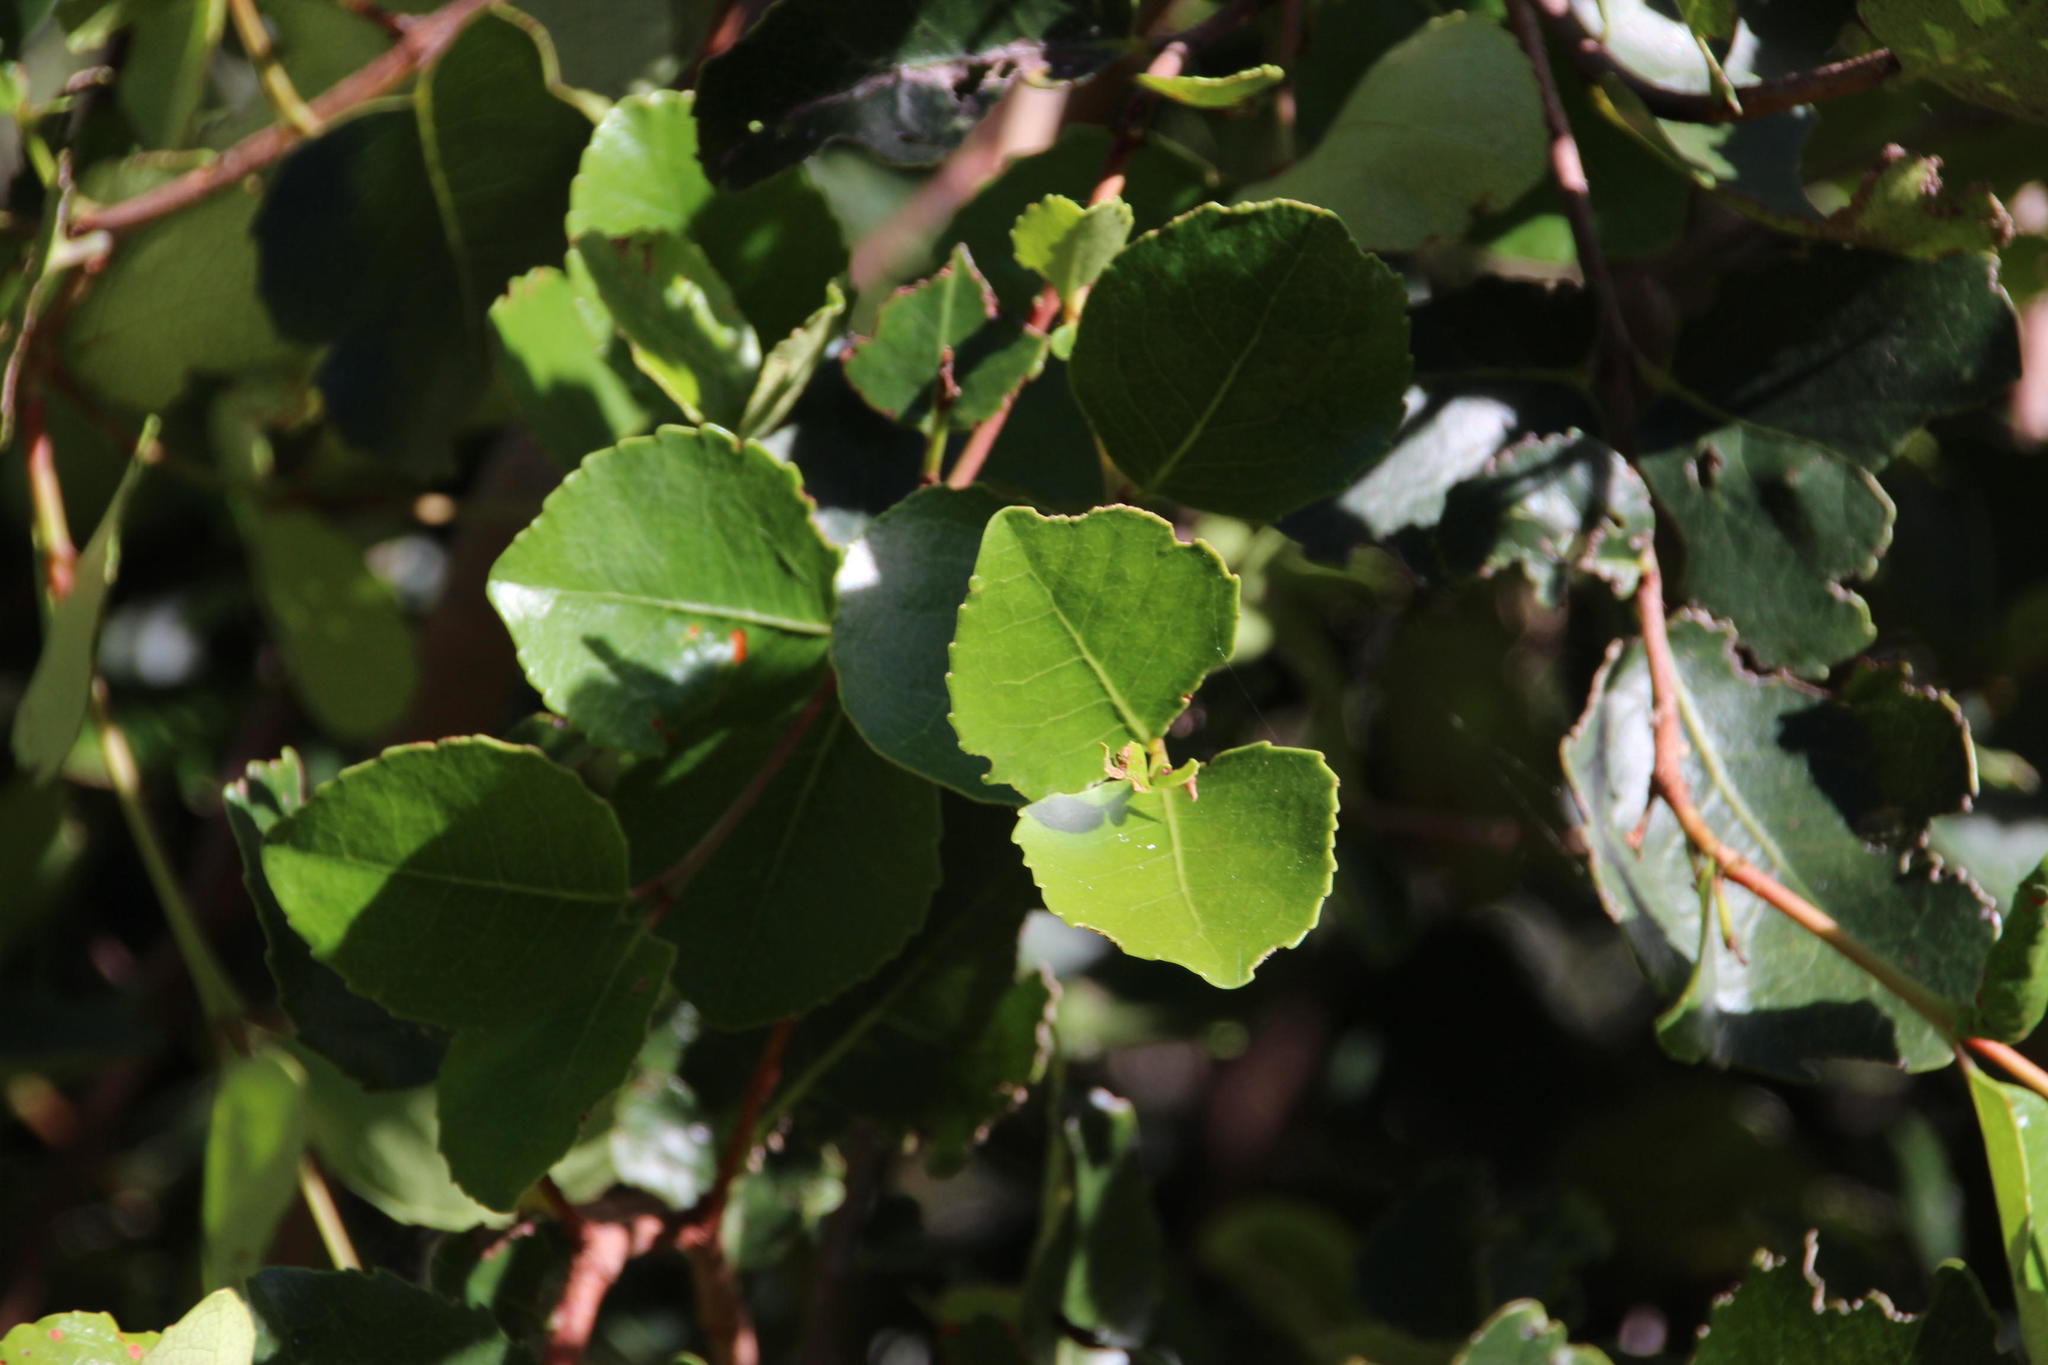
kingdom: Plantae
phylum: Tracheophyta
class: Magnoliopsida
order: Celastrales
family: Celastraceae
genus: Cassine
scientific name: Cassine peragua
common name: Cape saffron
